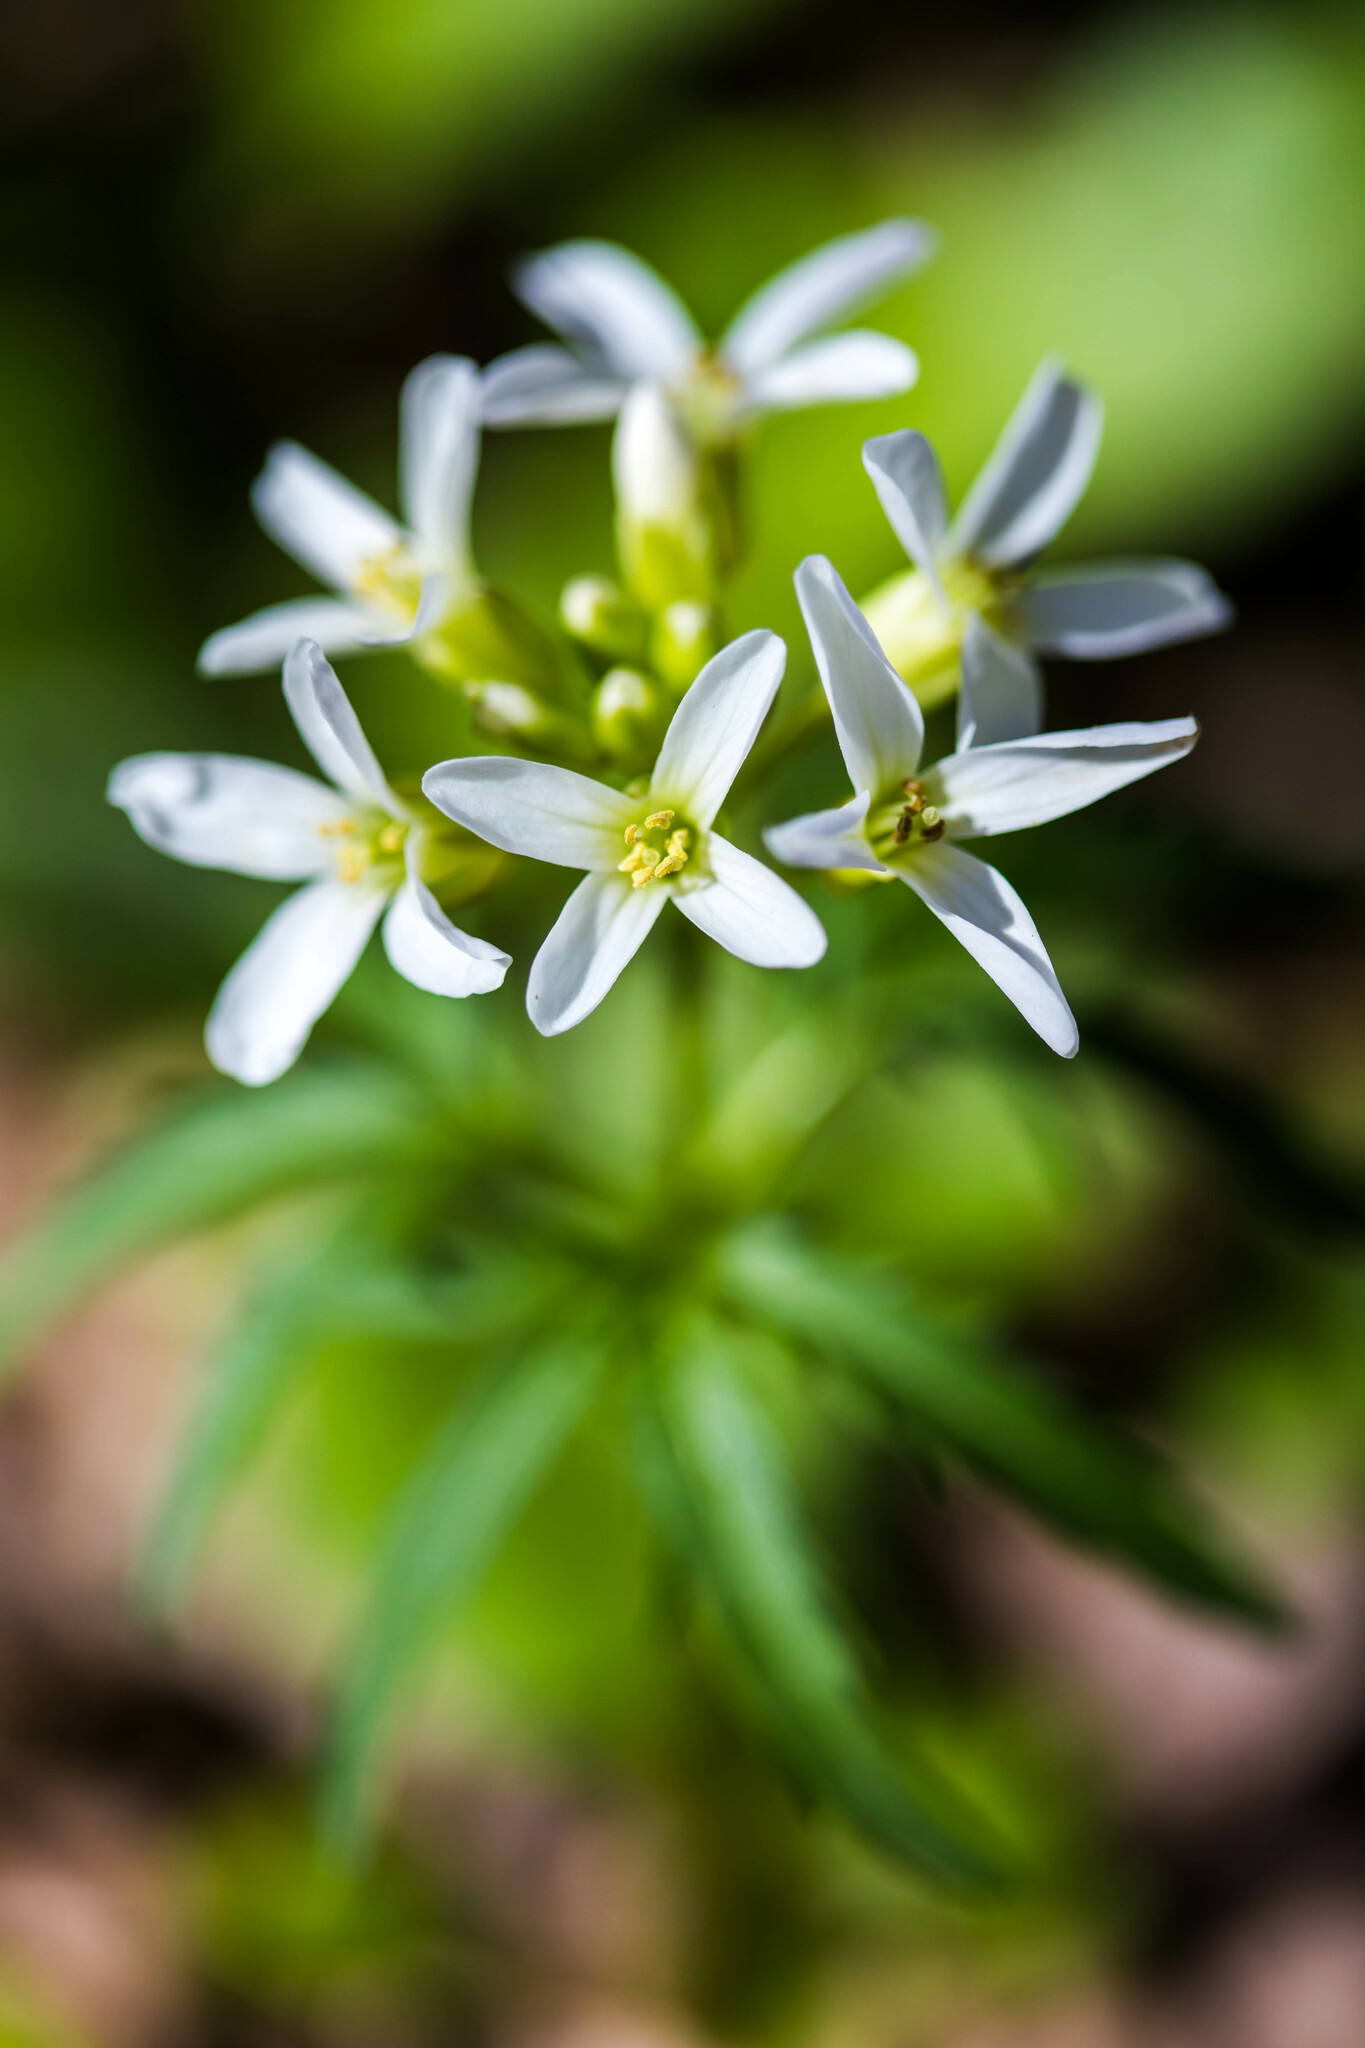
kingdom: Plantae
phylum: Tracheophyta
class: Magnoliopsida
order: Brassicales
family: Brassicaceae
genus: Cardamine
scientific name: Cardamine concatenata
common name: Cut-leaf toothcup
